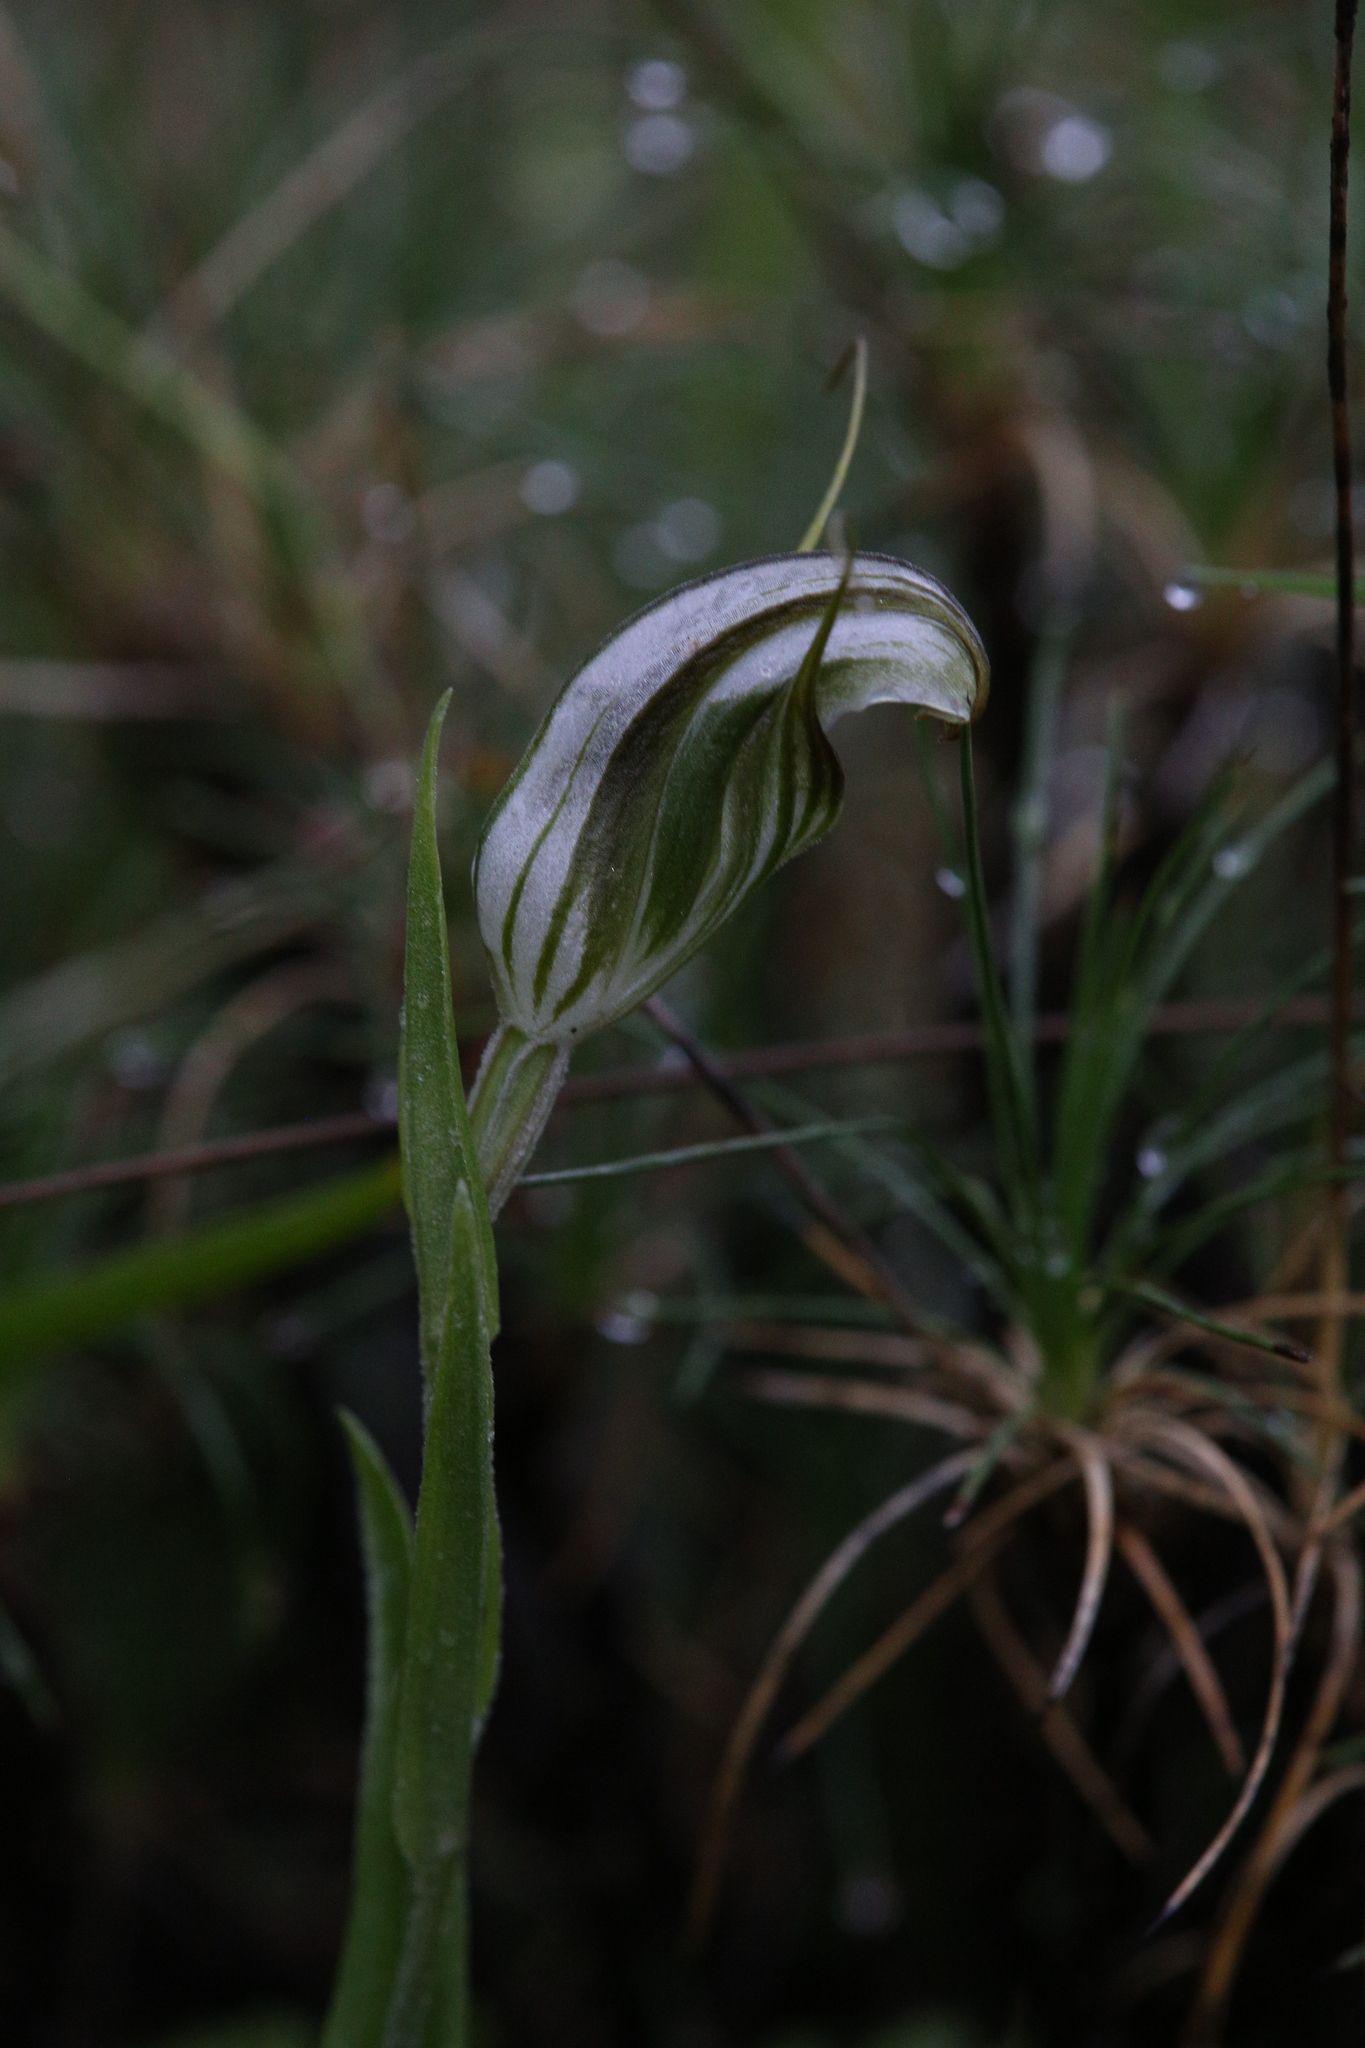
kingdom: Plantae
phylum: Tracheophyta
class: Liliopsida
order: Asparagales
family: Orchidaceae
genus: Pterostylis
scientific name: Pterostylis scabra
